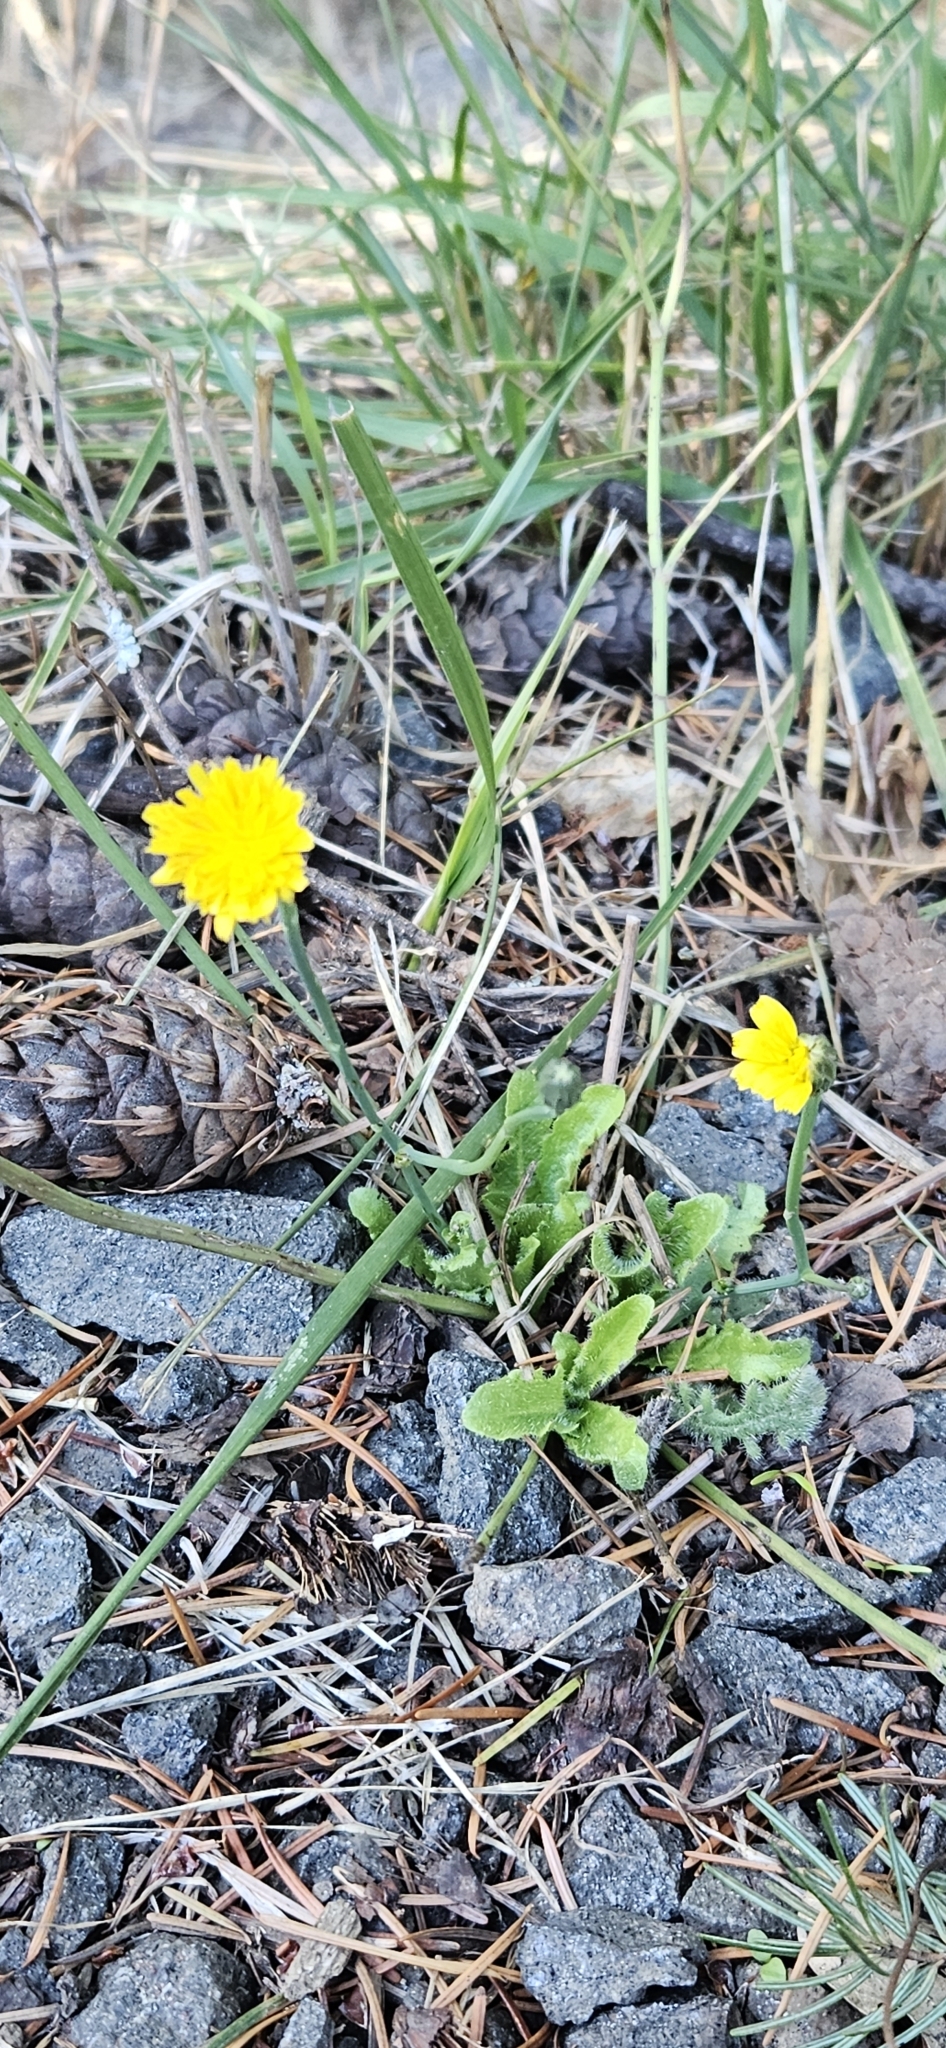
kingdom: Plantae
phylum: Tracheophyta
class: Magnoliopsida
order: Asterales
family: Asteraceae
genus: Hypochaeris
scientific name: Hypochaeris radicata
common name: Flatweed
